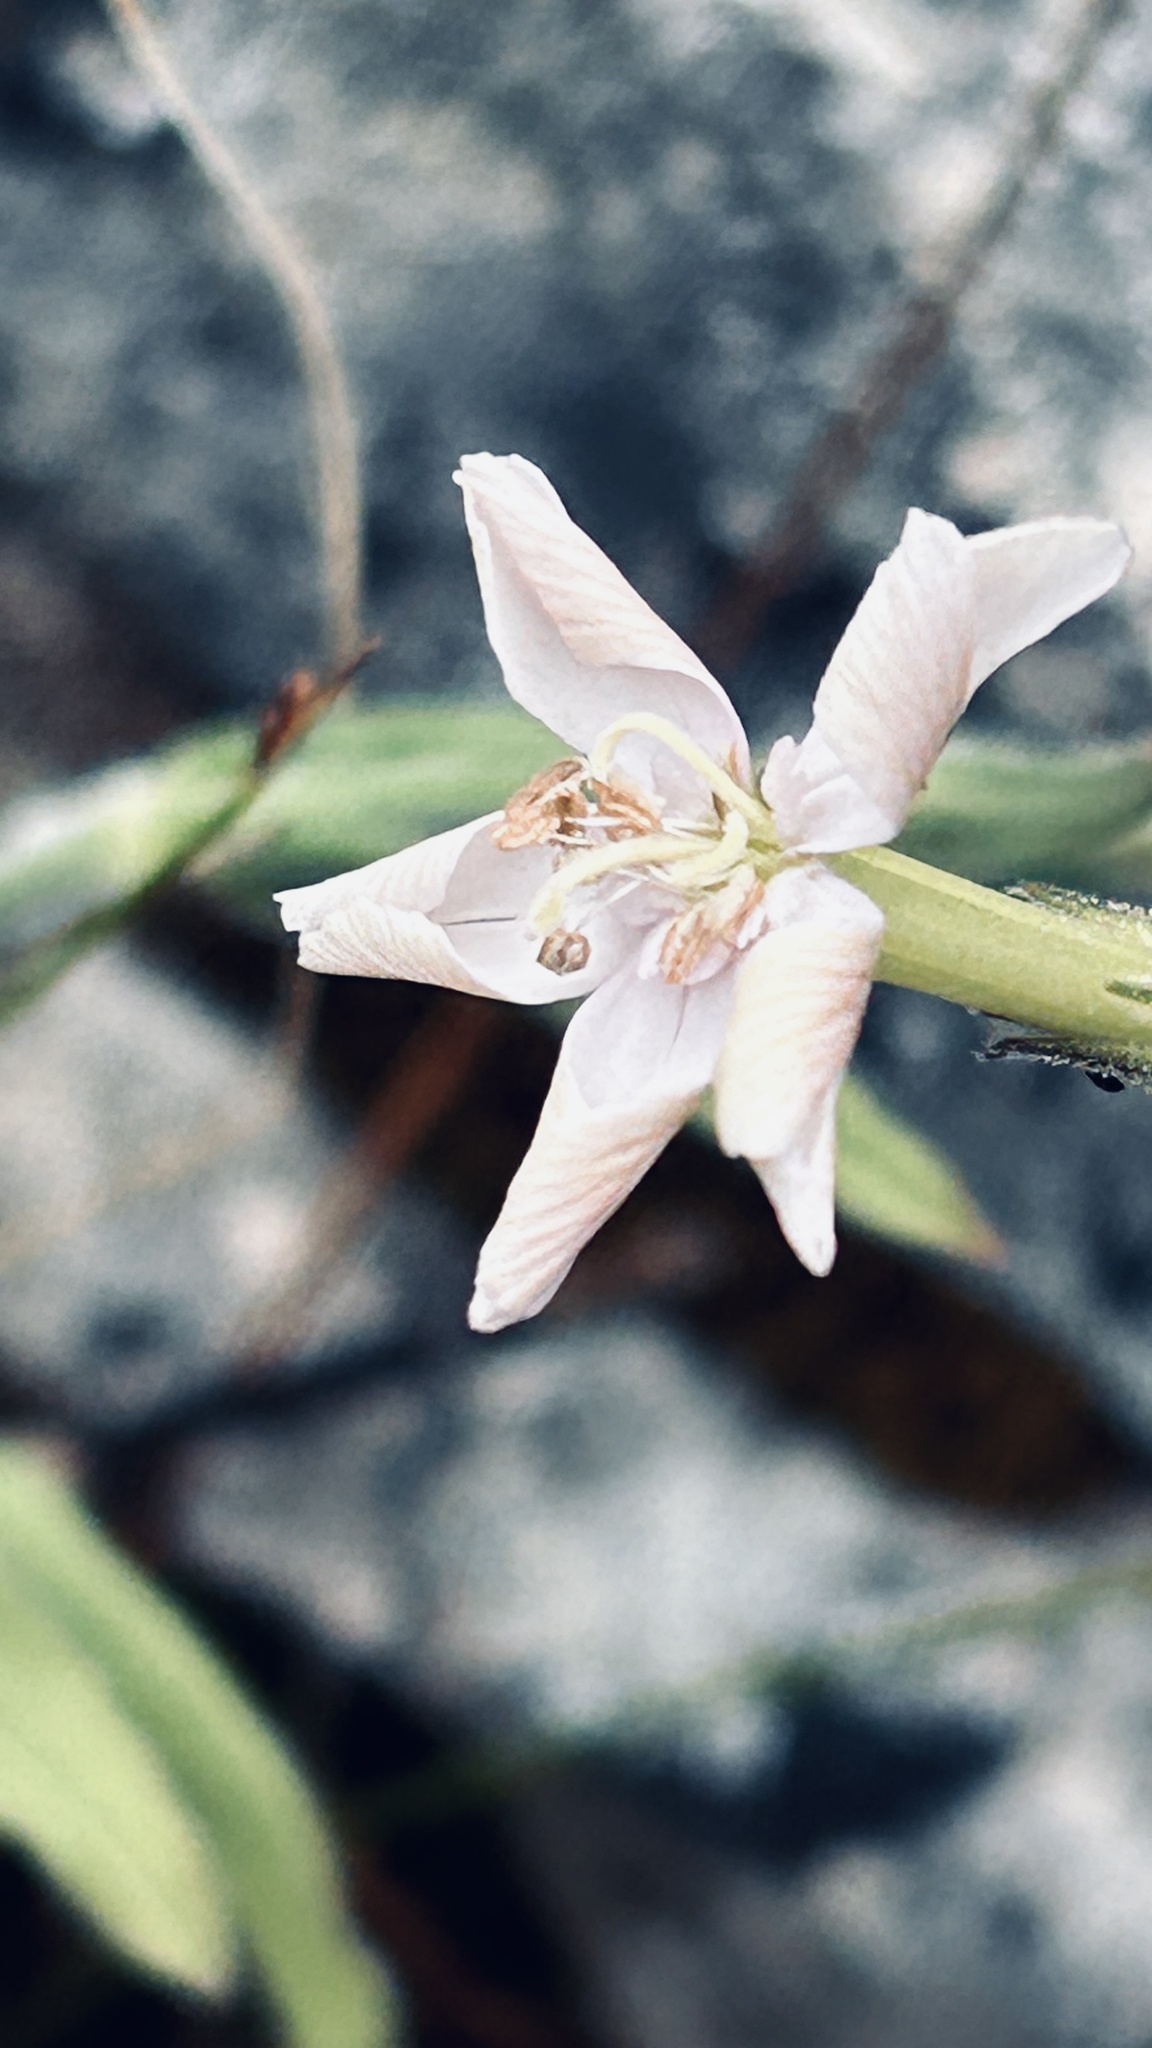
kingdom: Plantae
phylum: Tracheophyta
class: Magnoliopsida
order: Caryophyllales
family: Caryophyllaceae
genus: Silene
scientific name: Silene undulata
